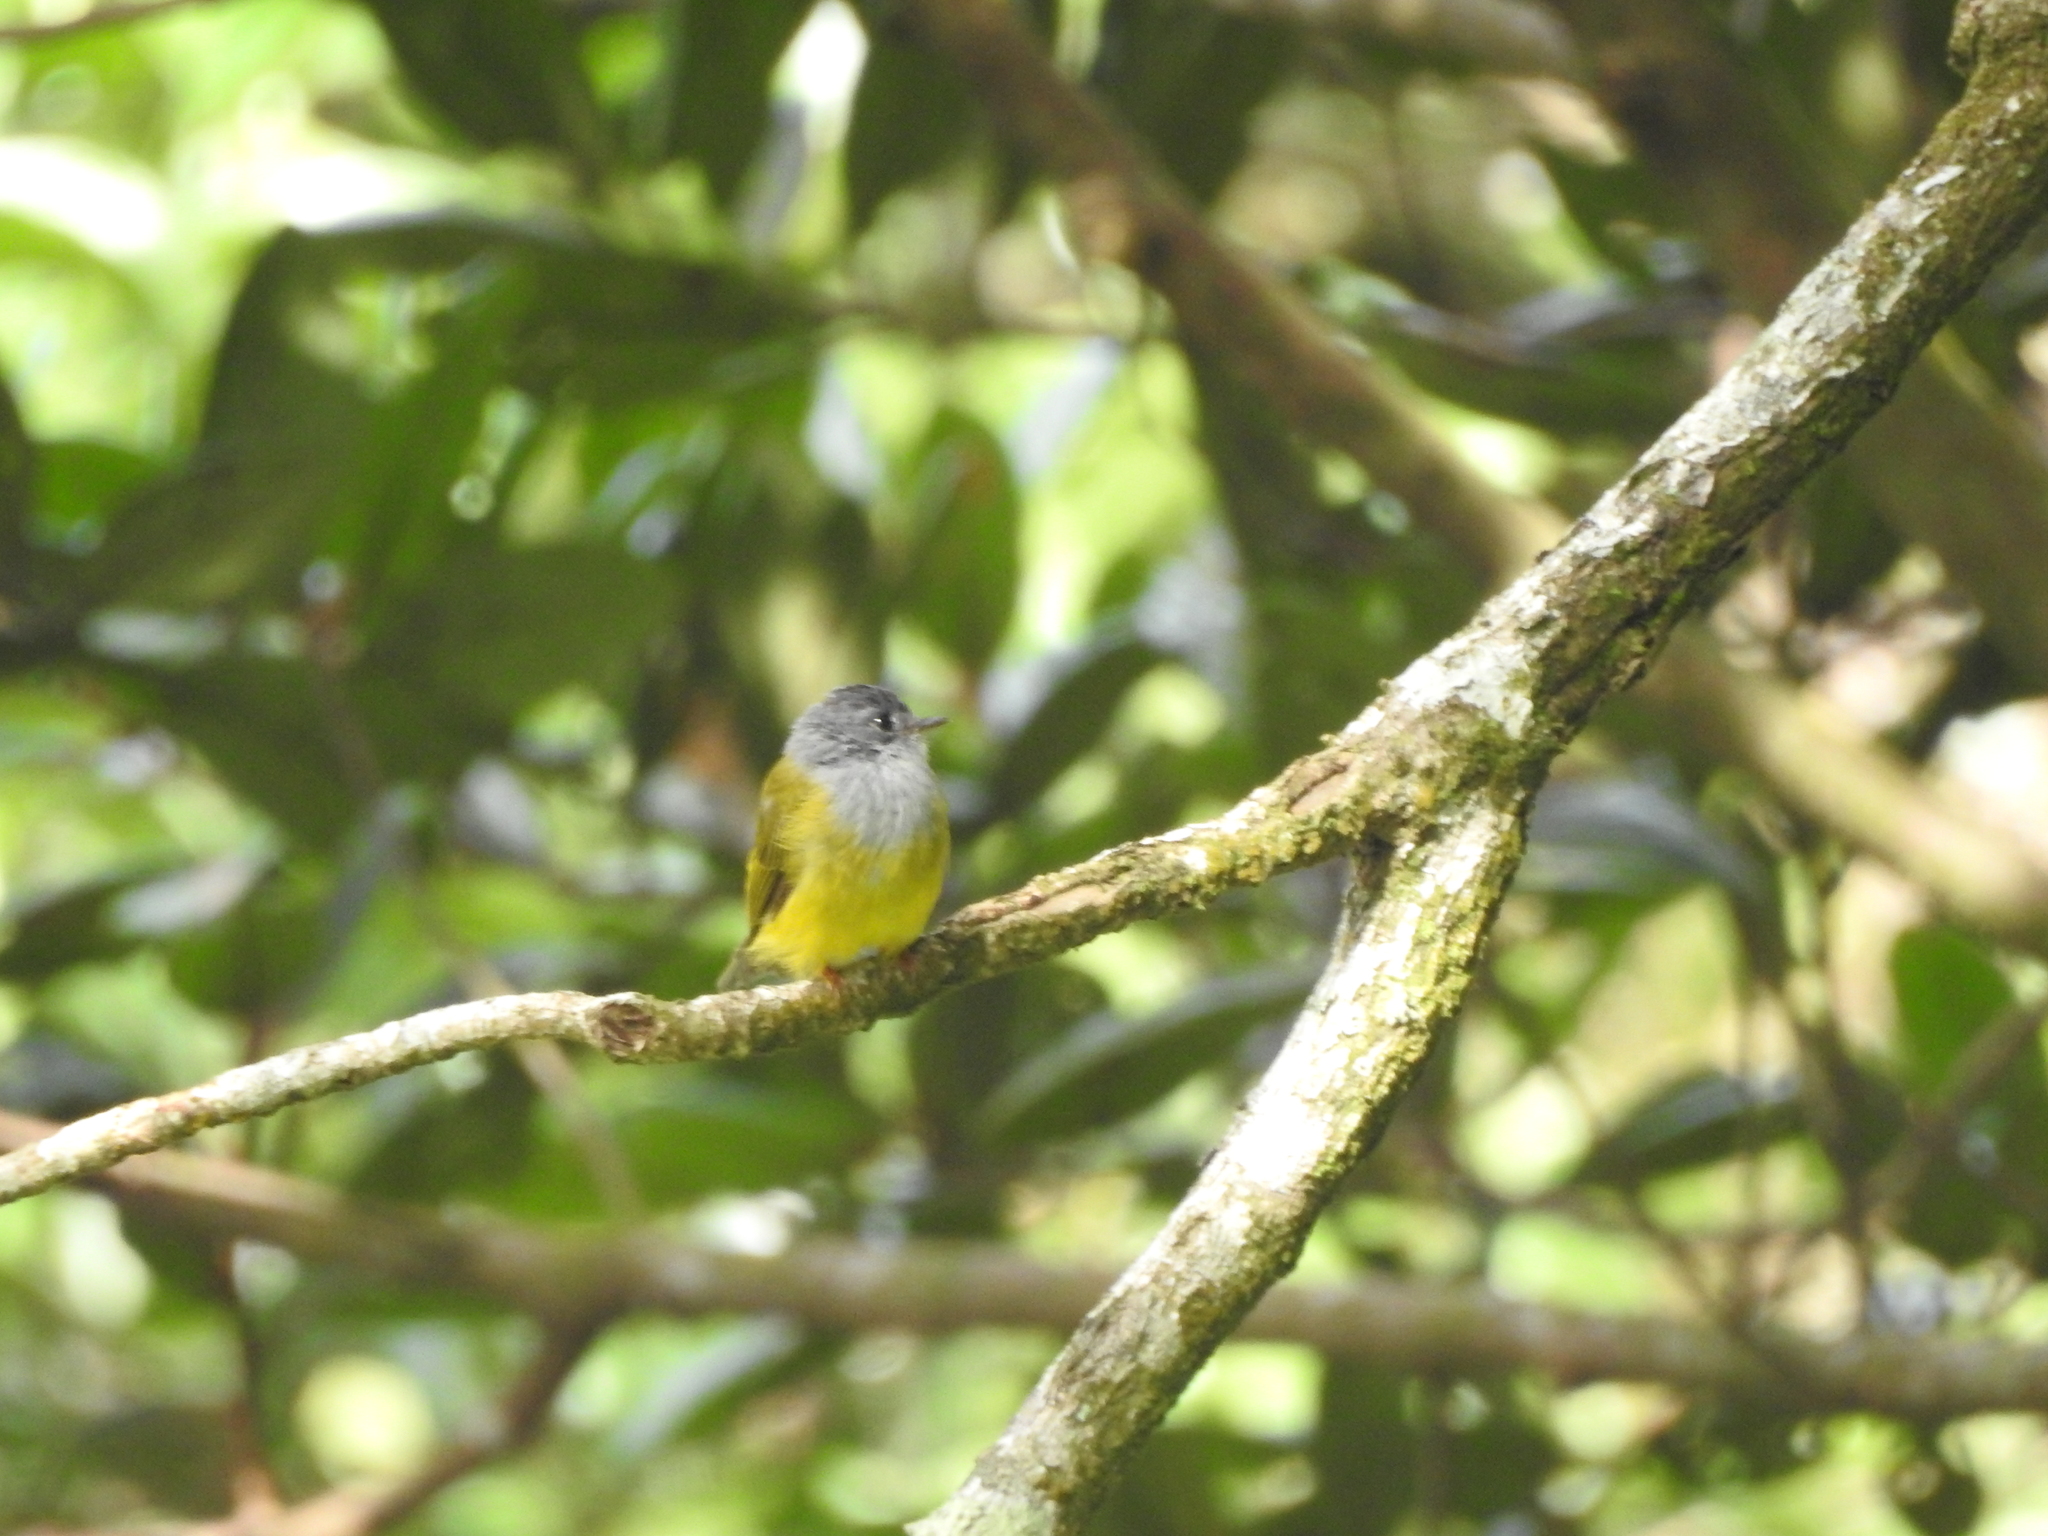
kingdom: Animalia
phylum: Chordata
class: Aves
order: Passeriformes
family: Stenostiridae
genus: Culicicapa
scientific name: Culicicapa ceylonensis
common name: Grey-headed canary-flycatcher
